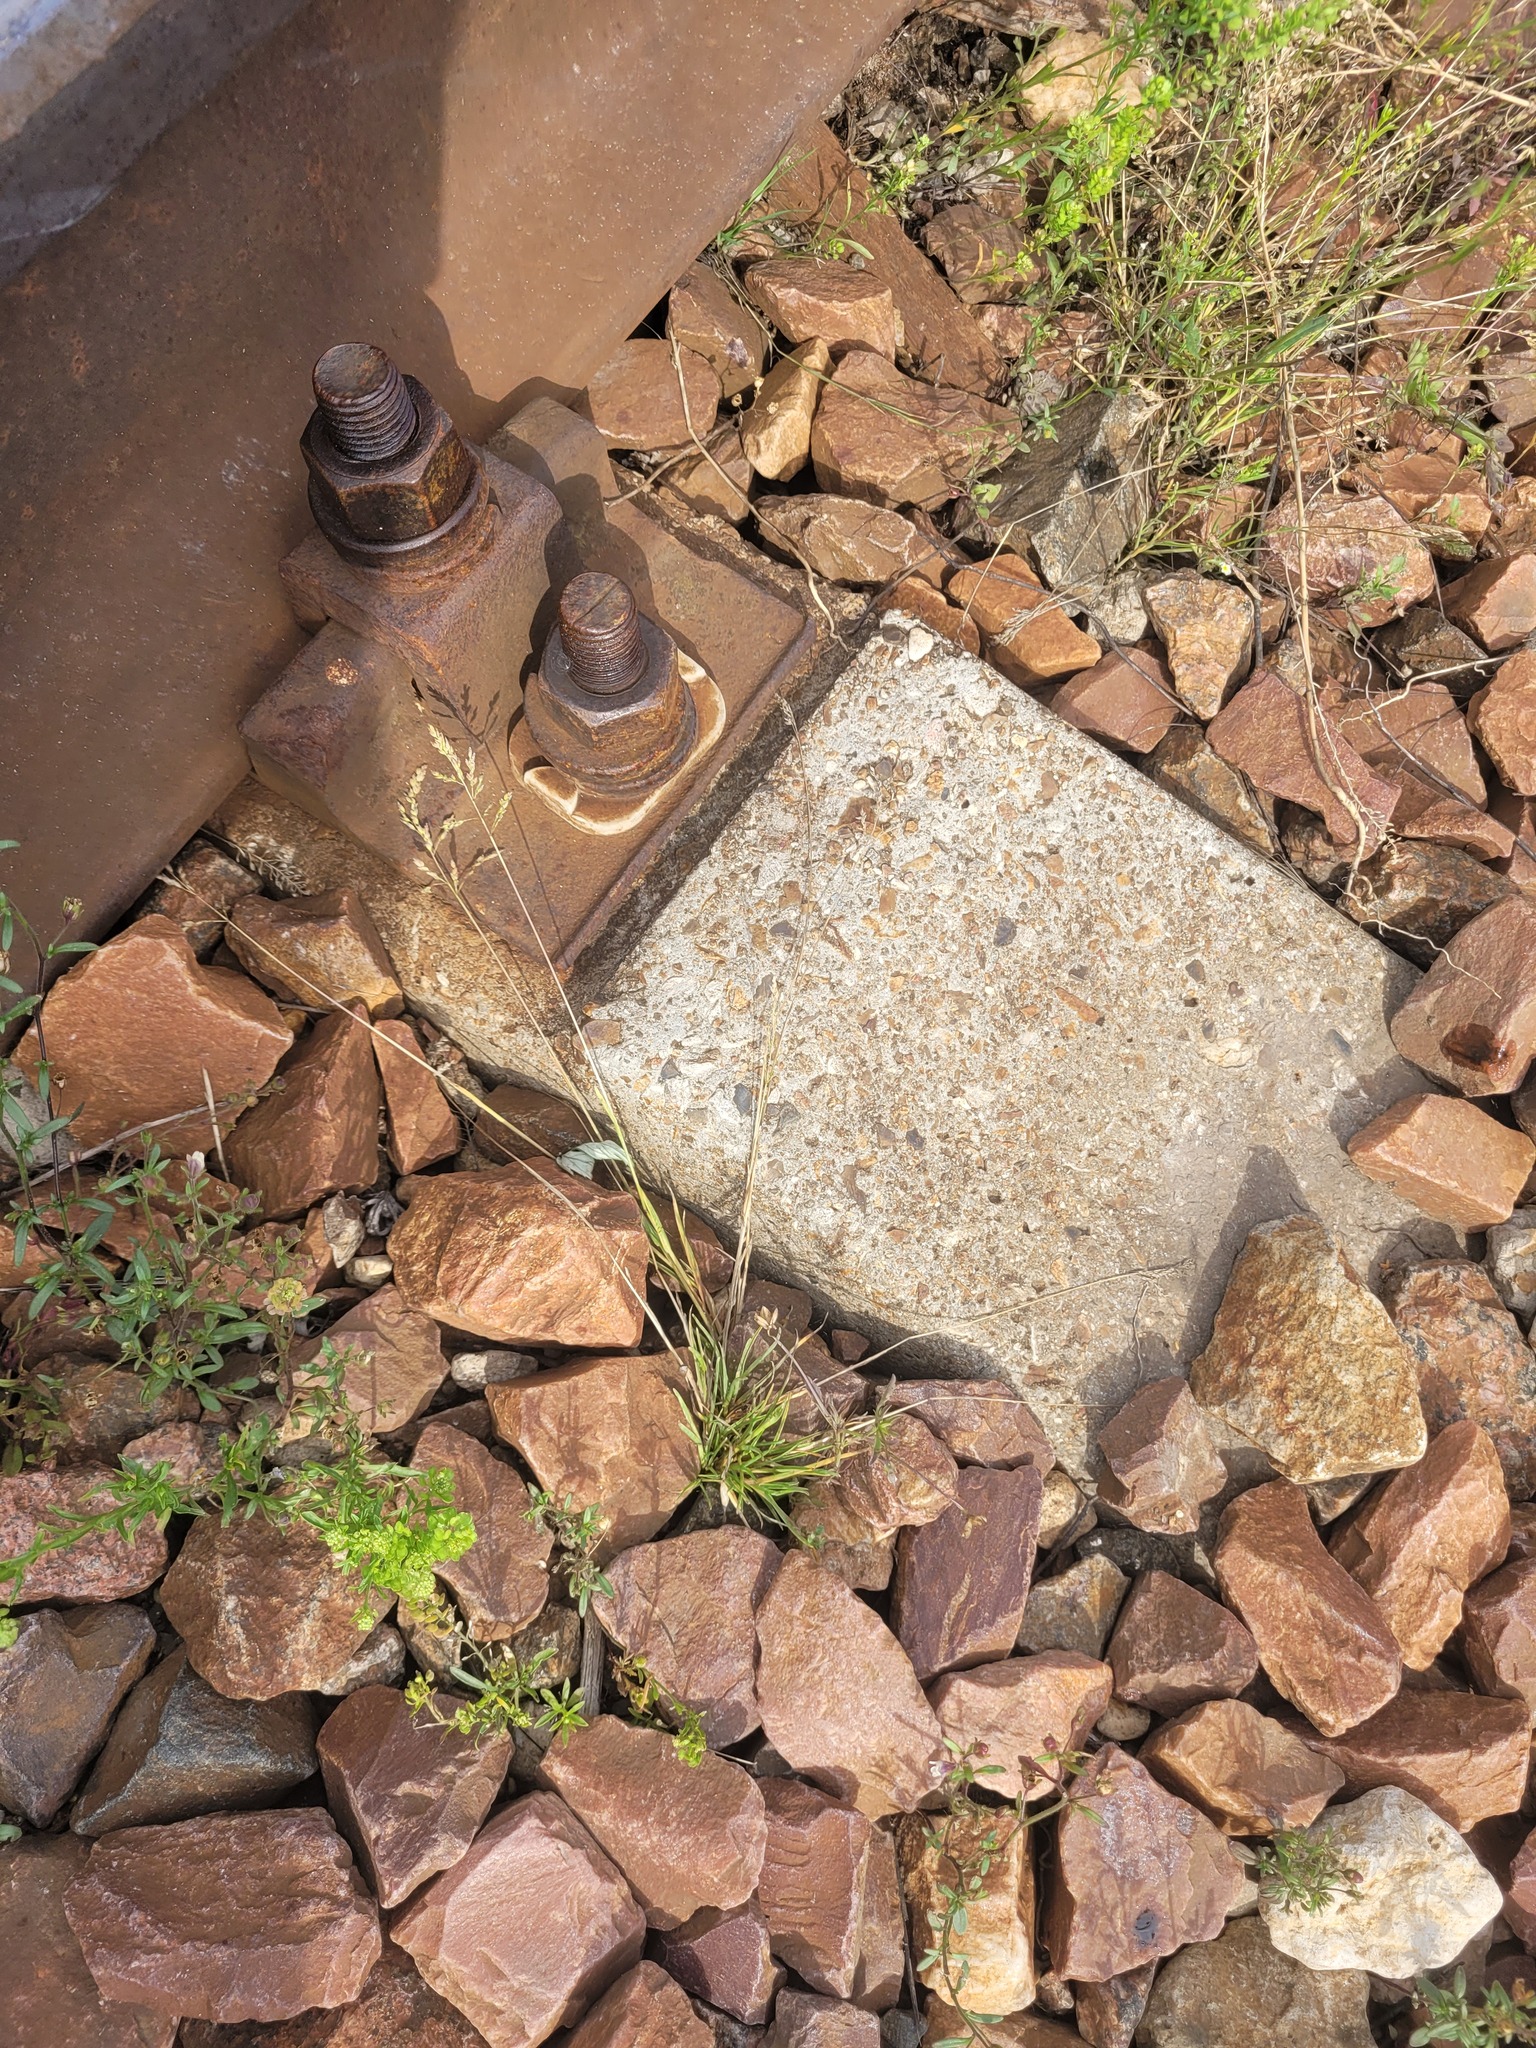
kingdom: Plantae
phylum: Tracheophyta
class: Liliopsida
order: Poales
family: Poaceae
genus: Poa
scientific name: Poa annua
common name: Annual bluegrass
